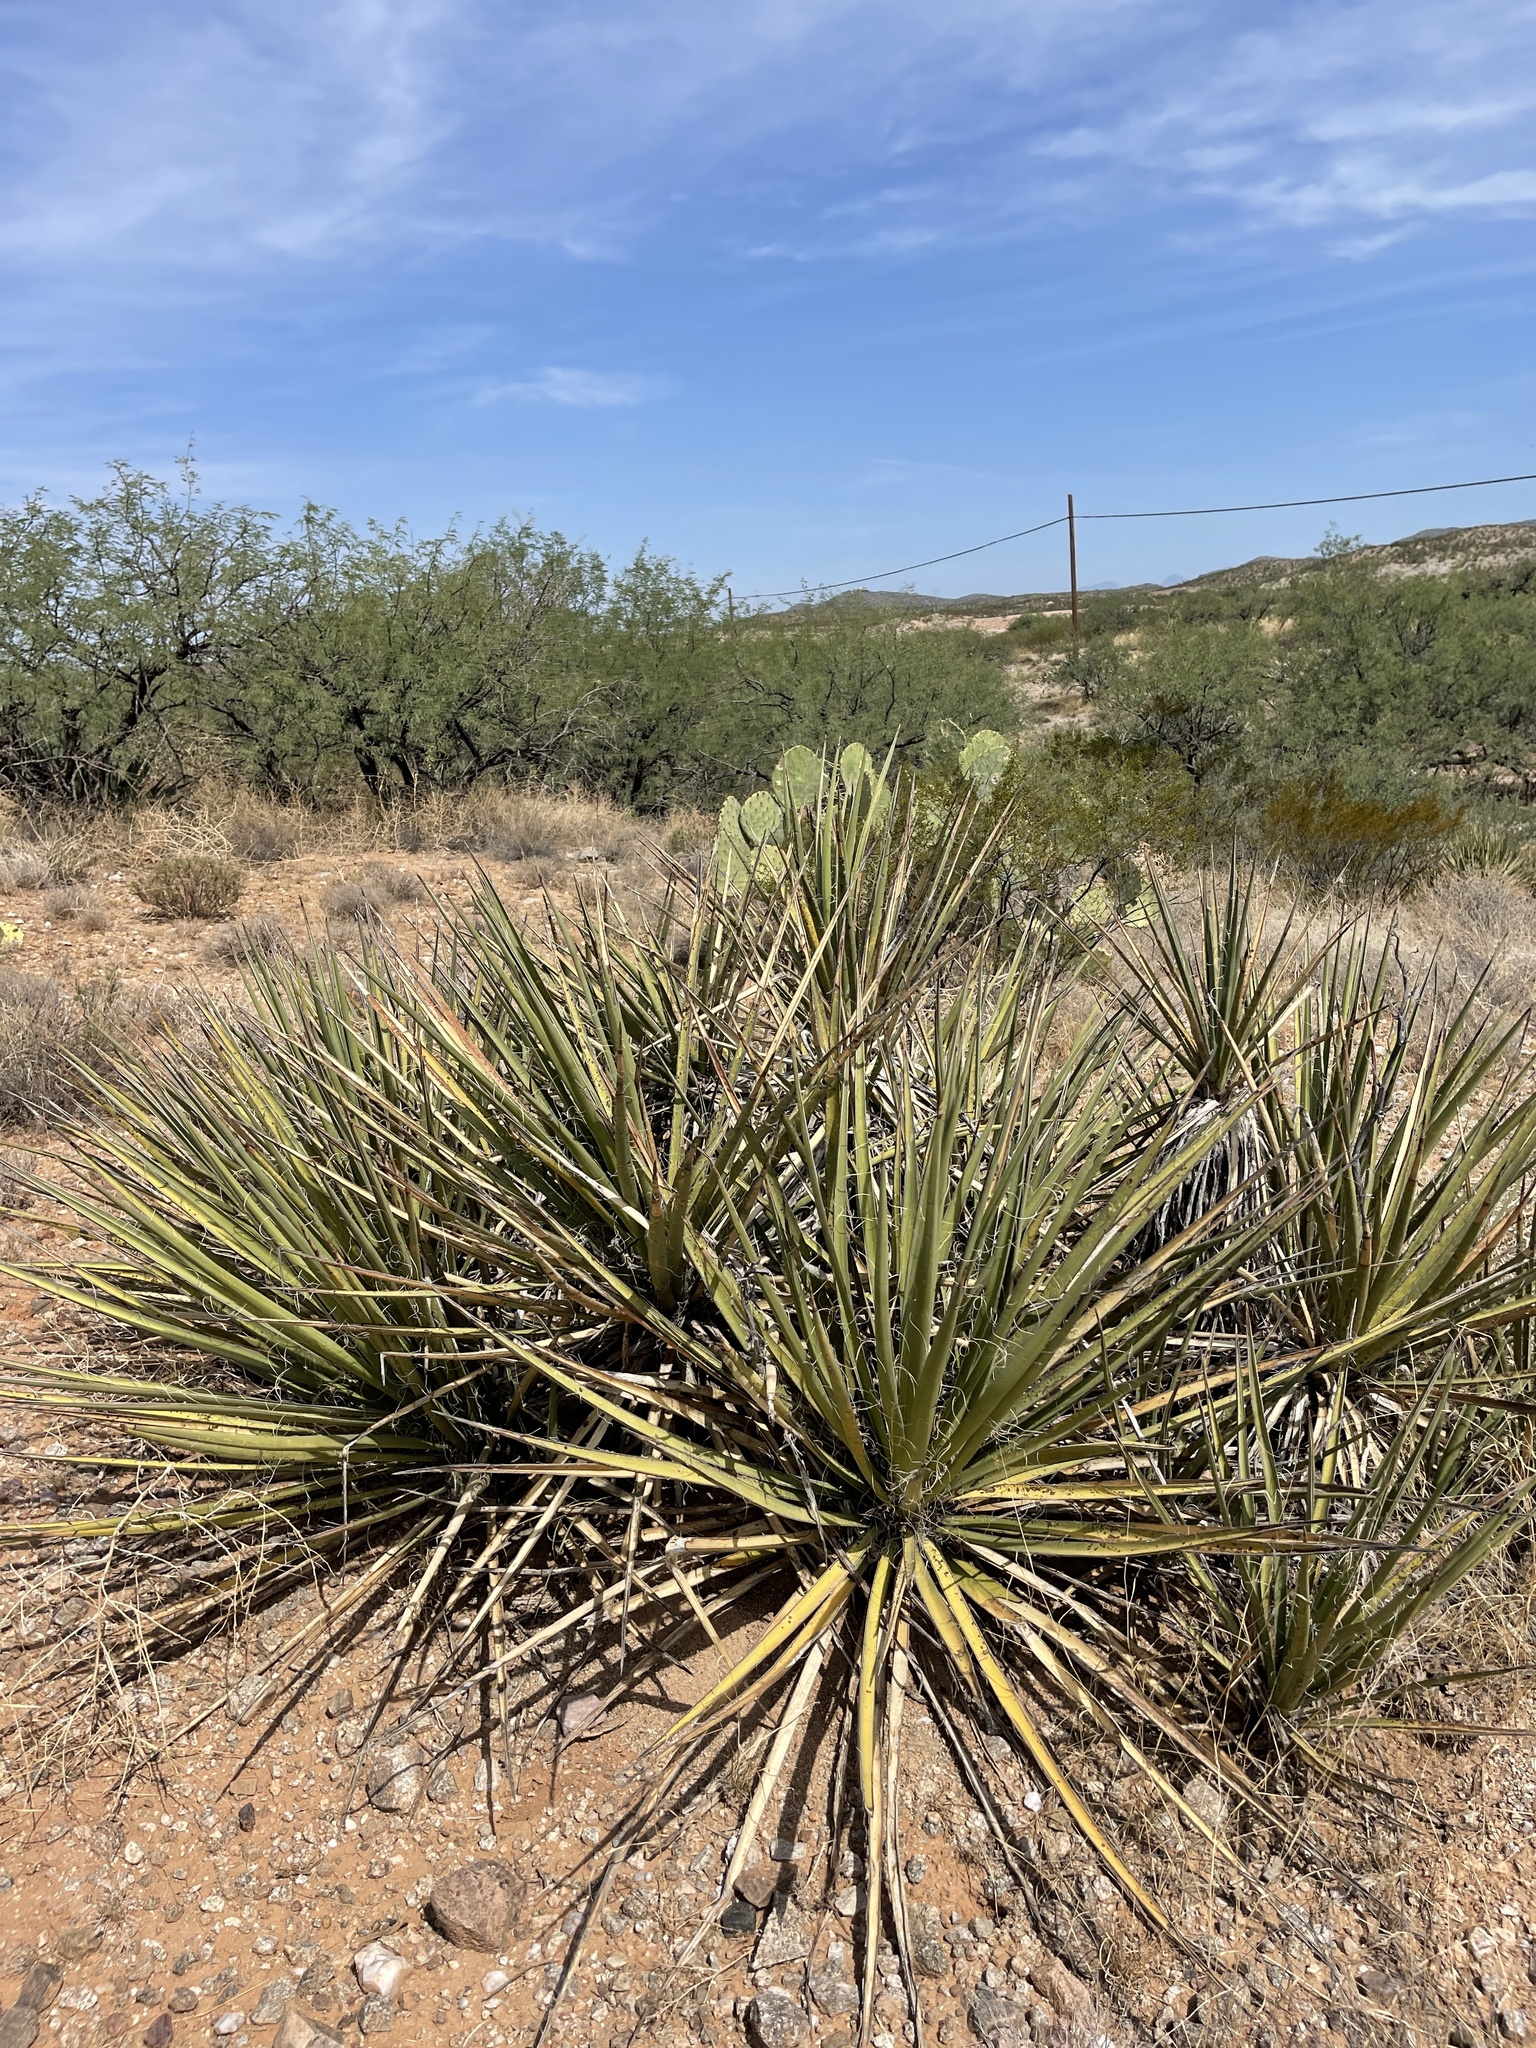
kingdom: Plantae
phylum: Tracheophyta
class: Liliopsida
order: Asparagales
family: Asparagaceae
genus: Yucca
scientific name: Yucca baccata
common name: Banana yucca
